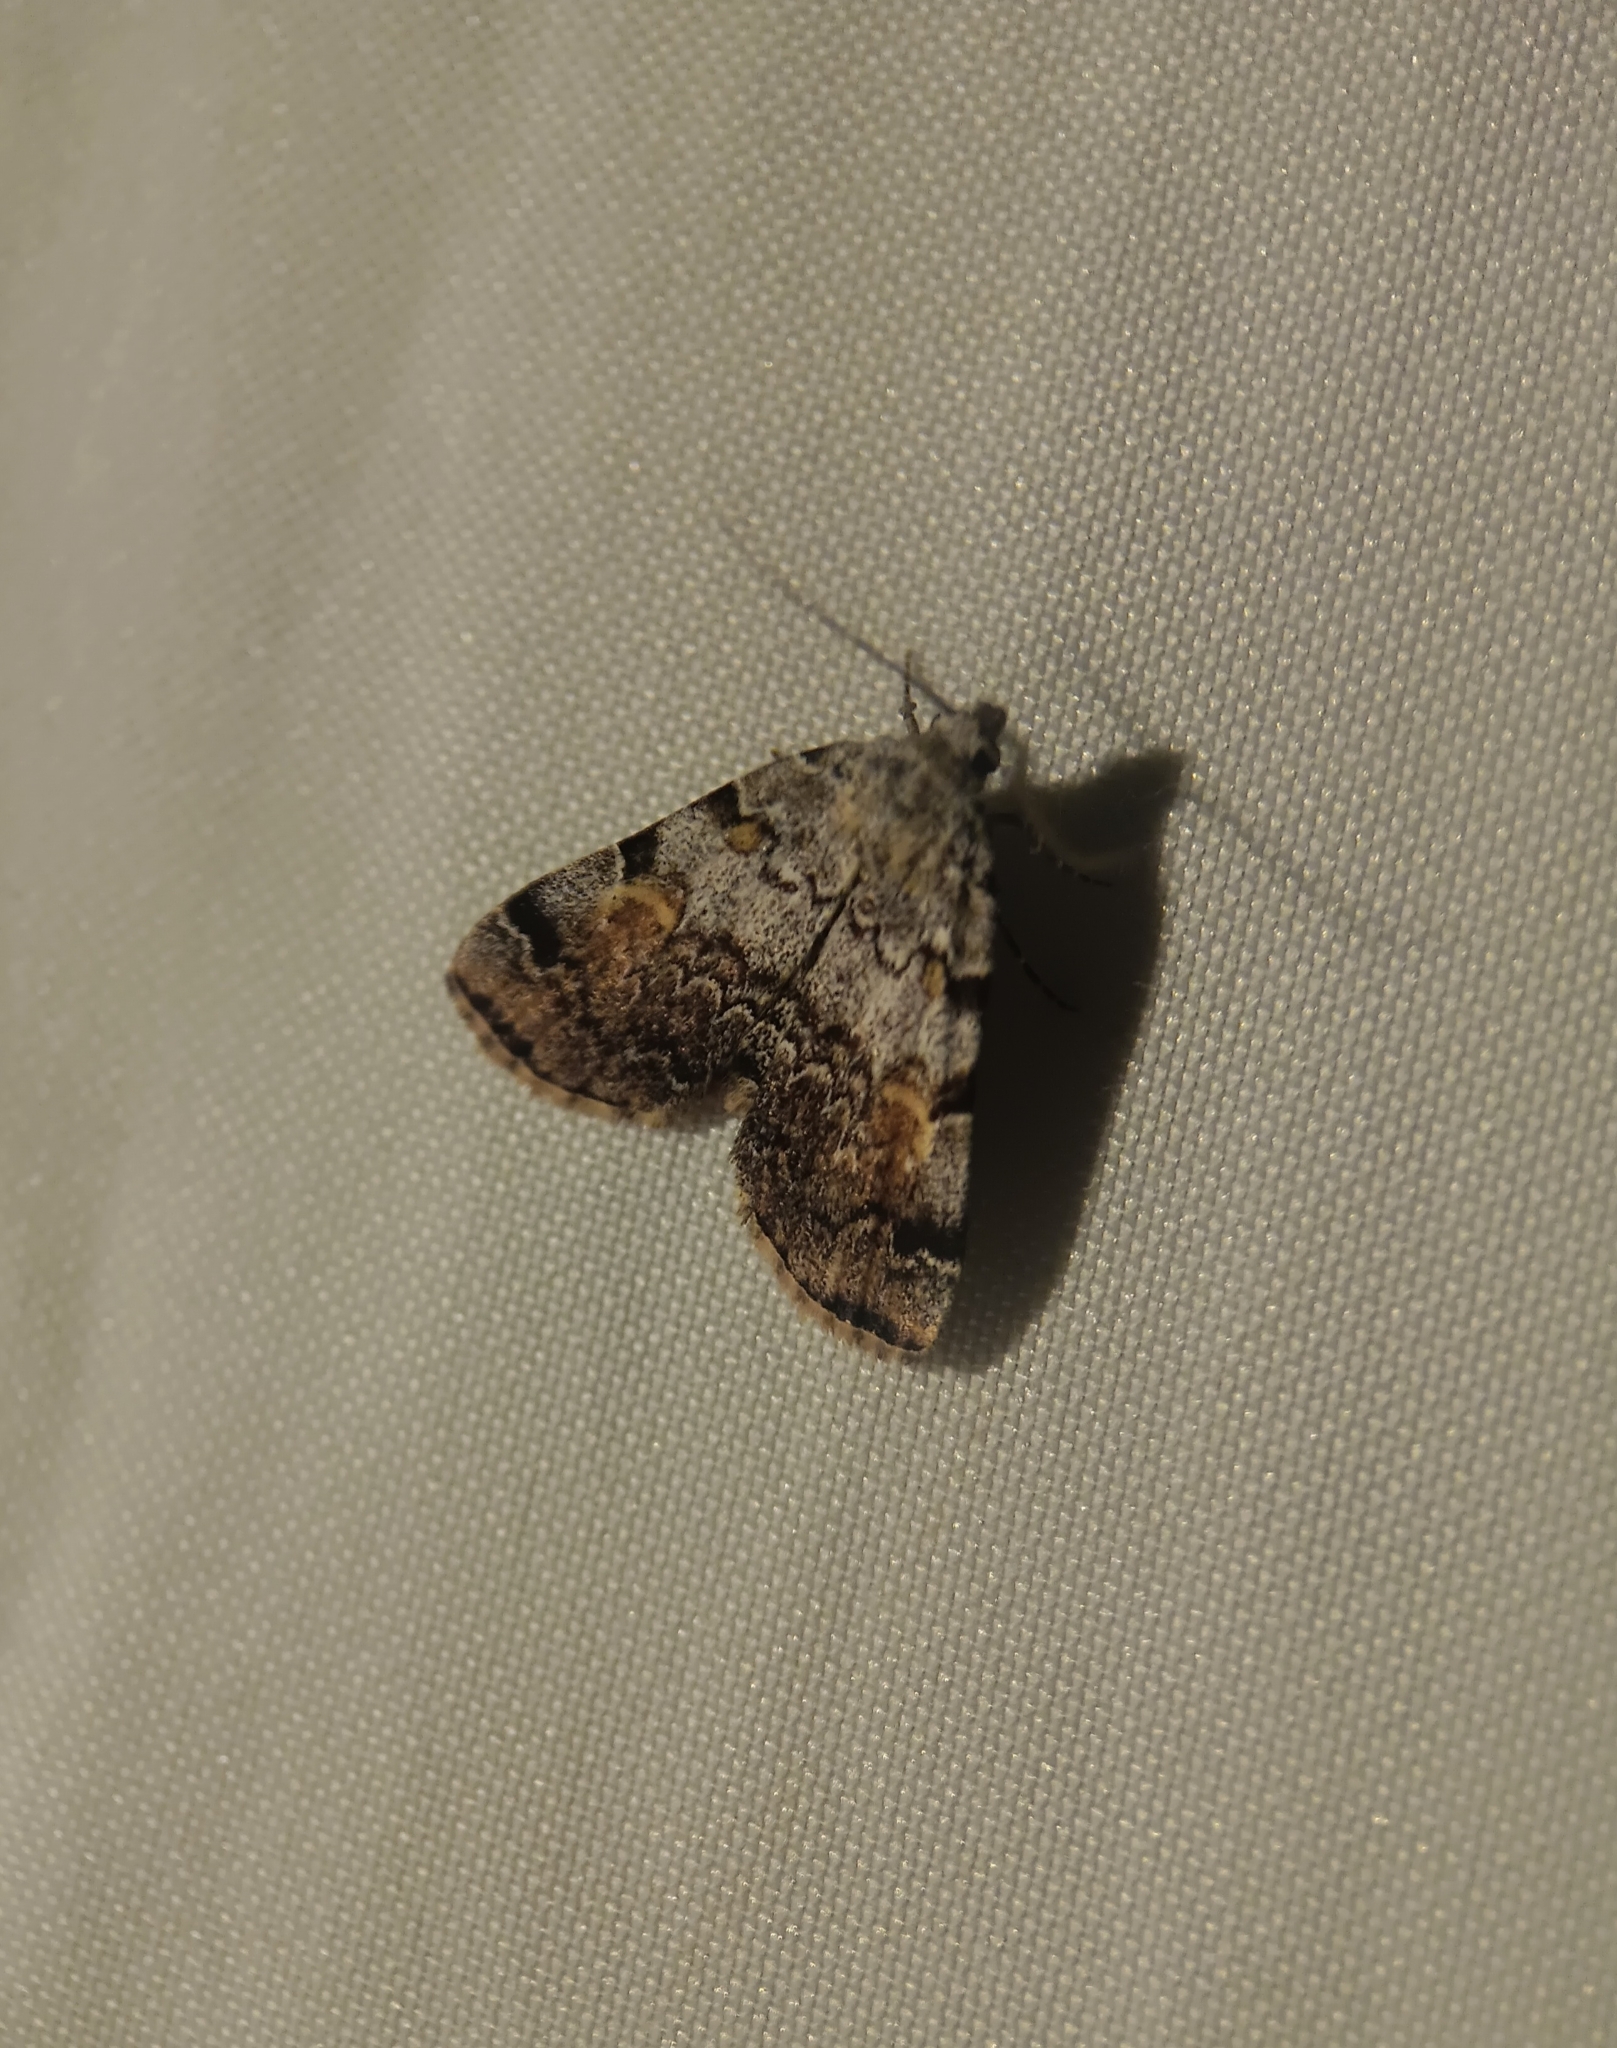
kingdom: Animalia
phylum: Arthropoda
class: Insecta
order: Lepidoptera
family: Erebidae
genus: Idia
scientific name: Idia americalis
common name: American idia moth
